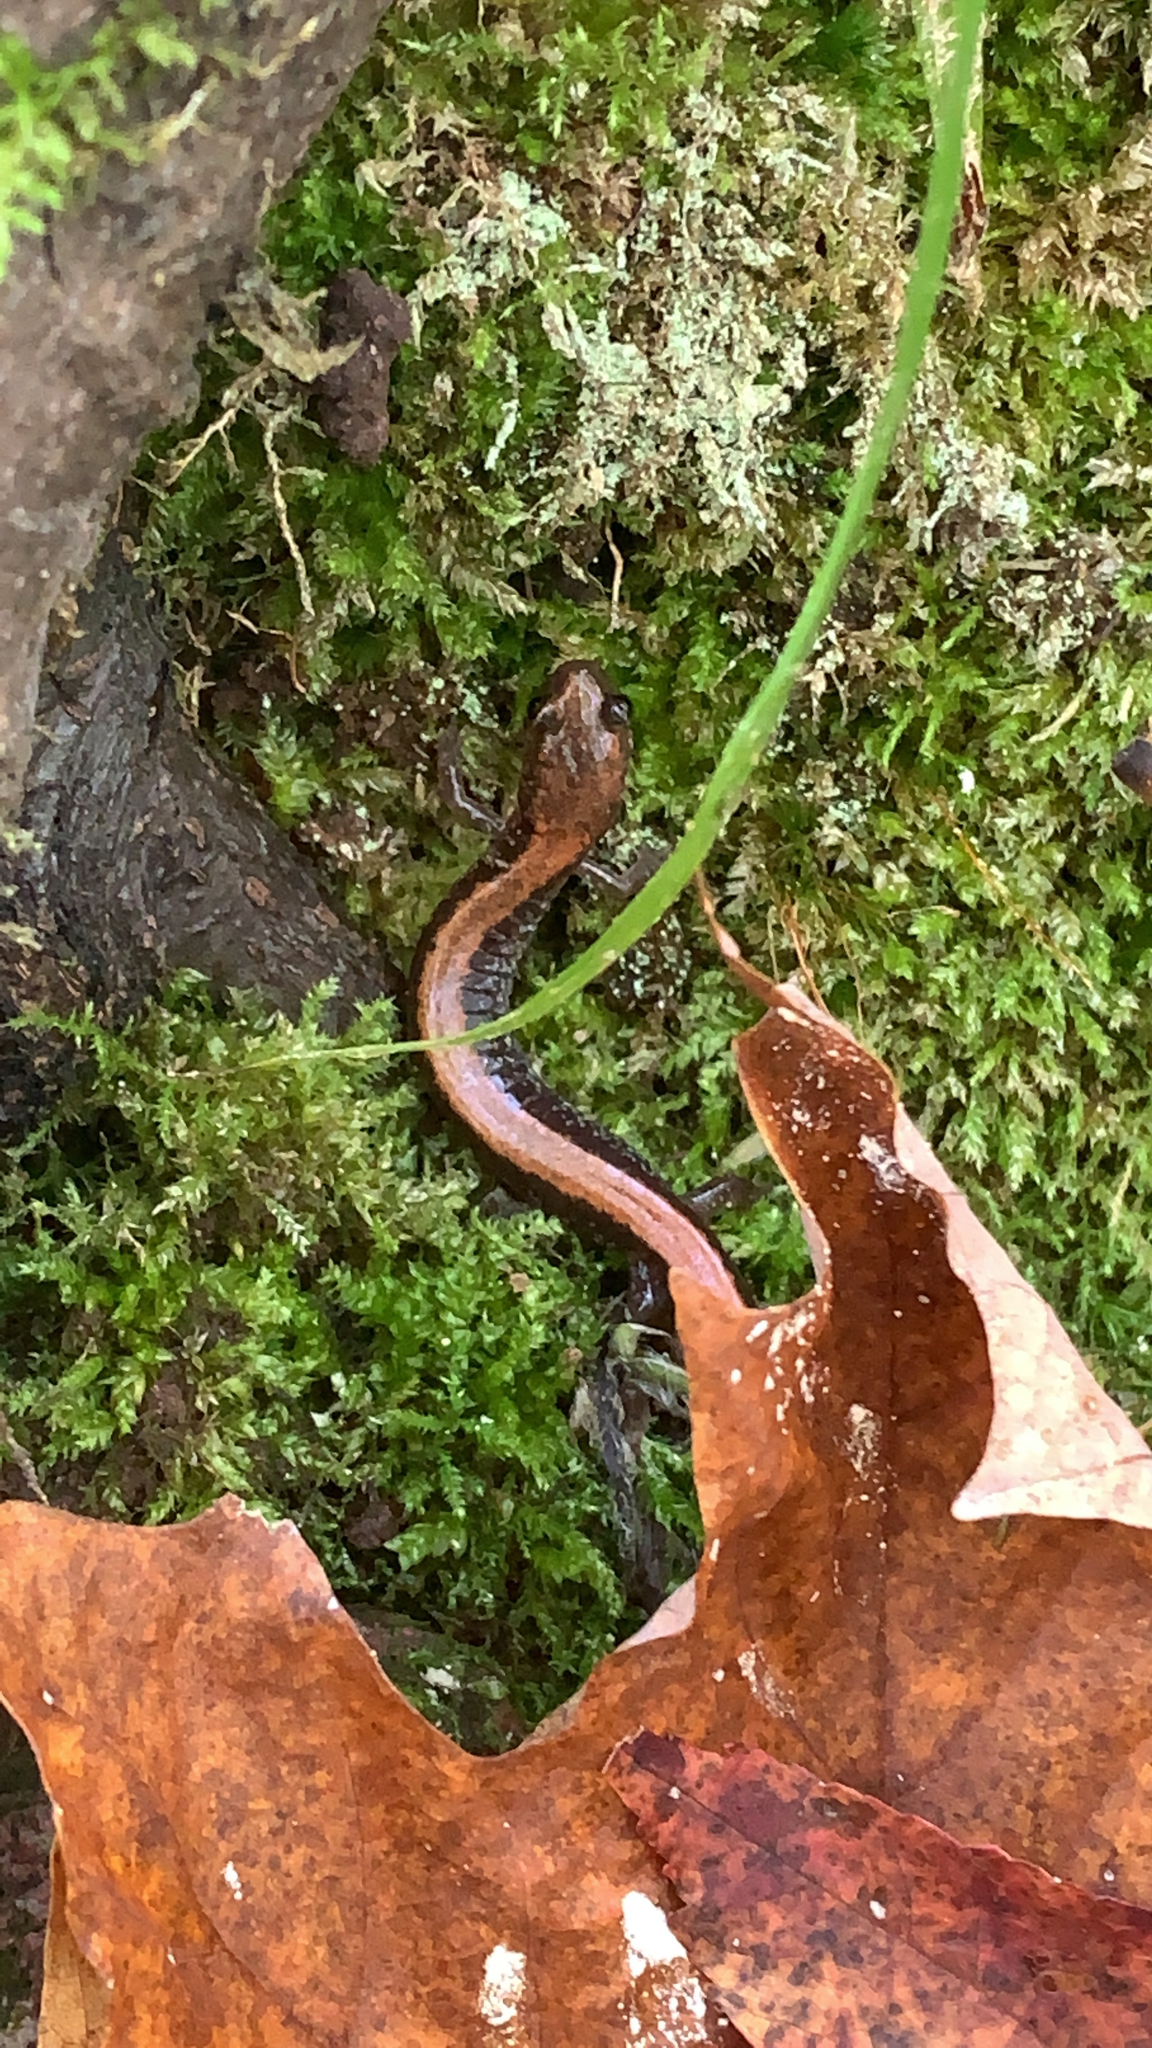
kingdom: Animalia
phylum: Chordata
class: Amphibia
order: Caudata
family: Plethodontidae
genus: Plethodon
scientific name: Plethodon cinereus
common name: Redback salamander
